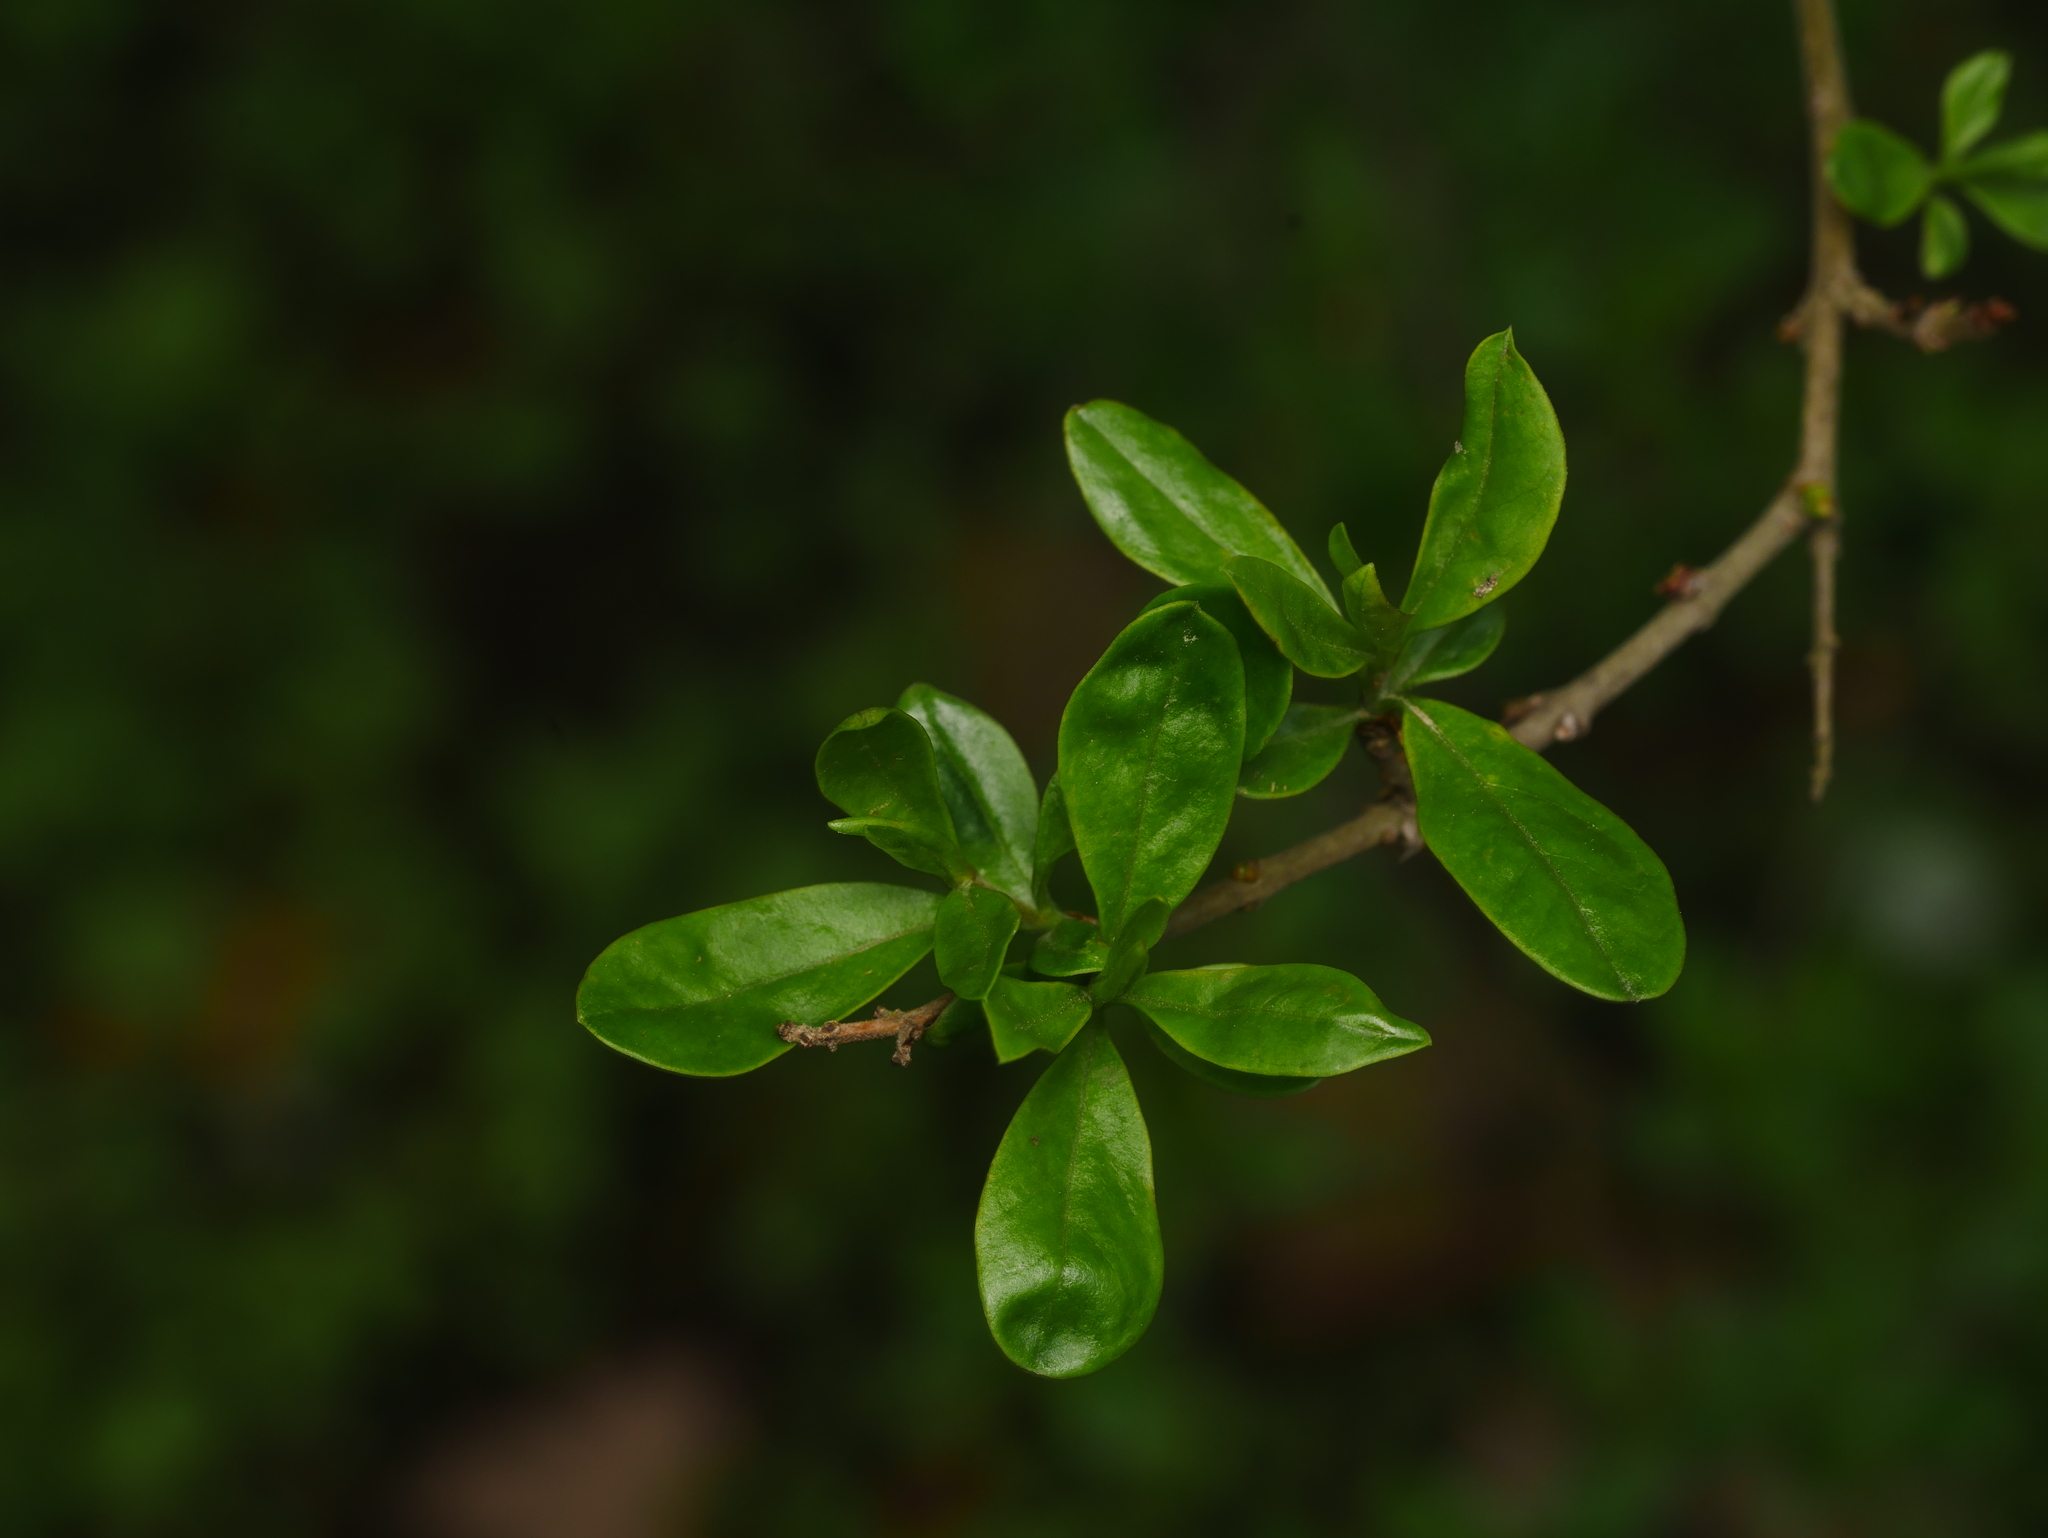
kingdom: Plantae
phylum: Tracheophyta
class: Magnoliopsida
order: Lamiales
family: Oleaceae
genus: Ligustrum
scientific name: Ligustrum vulgare
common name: Wild privet
